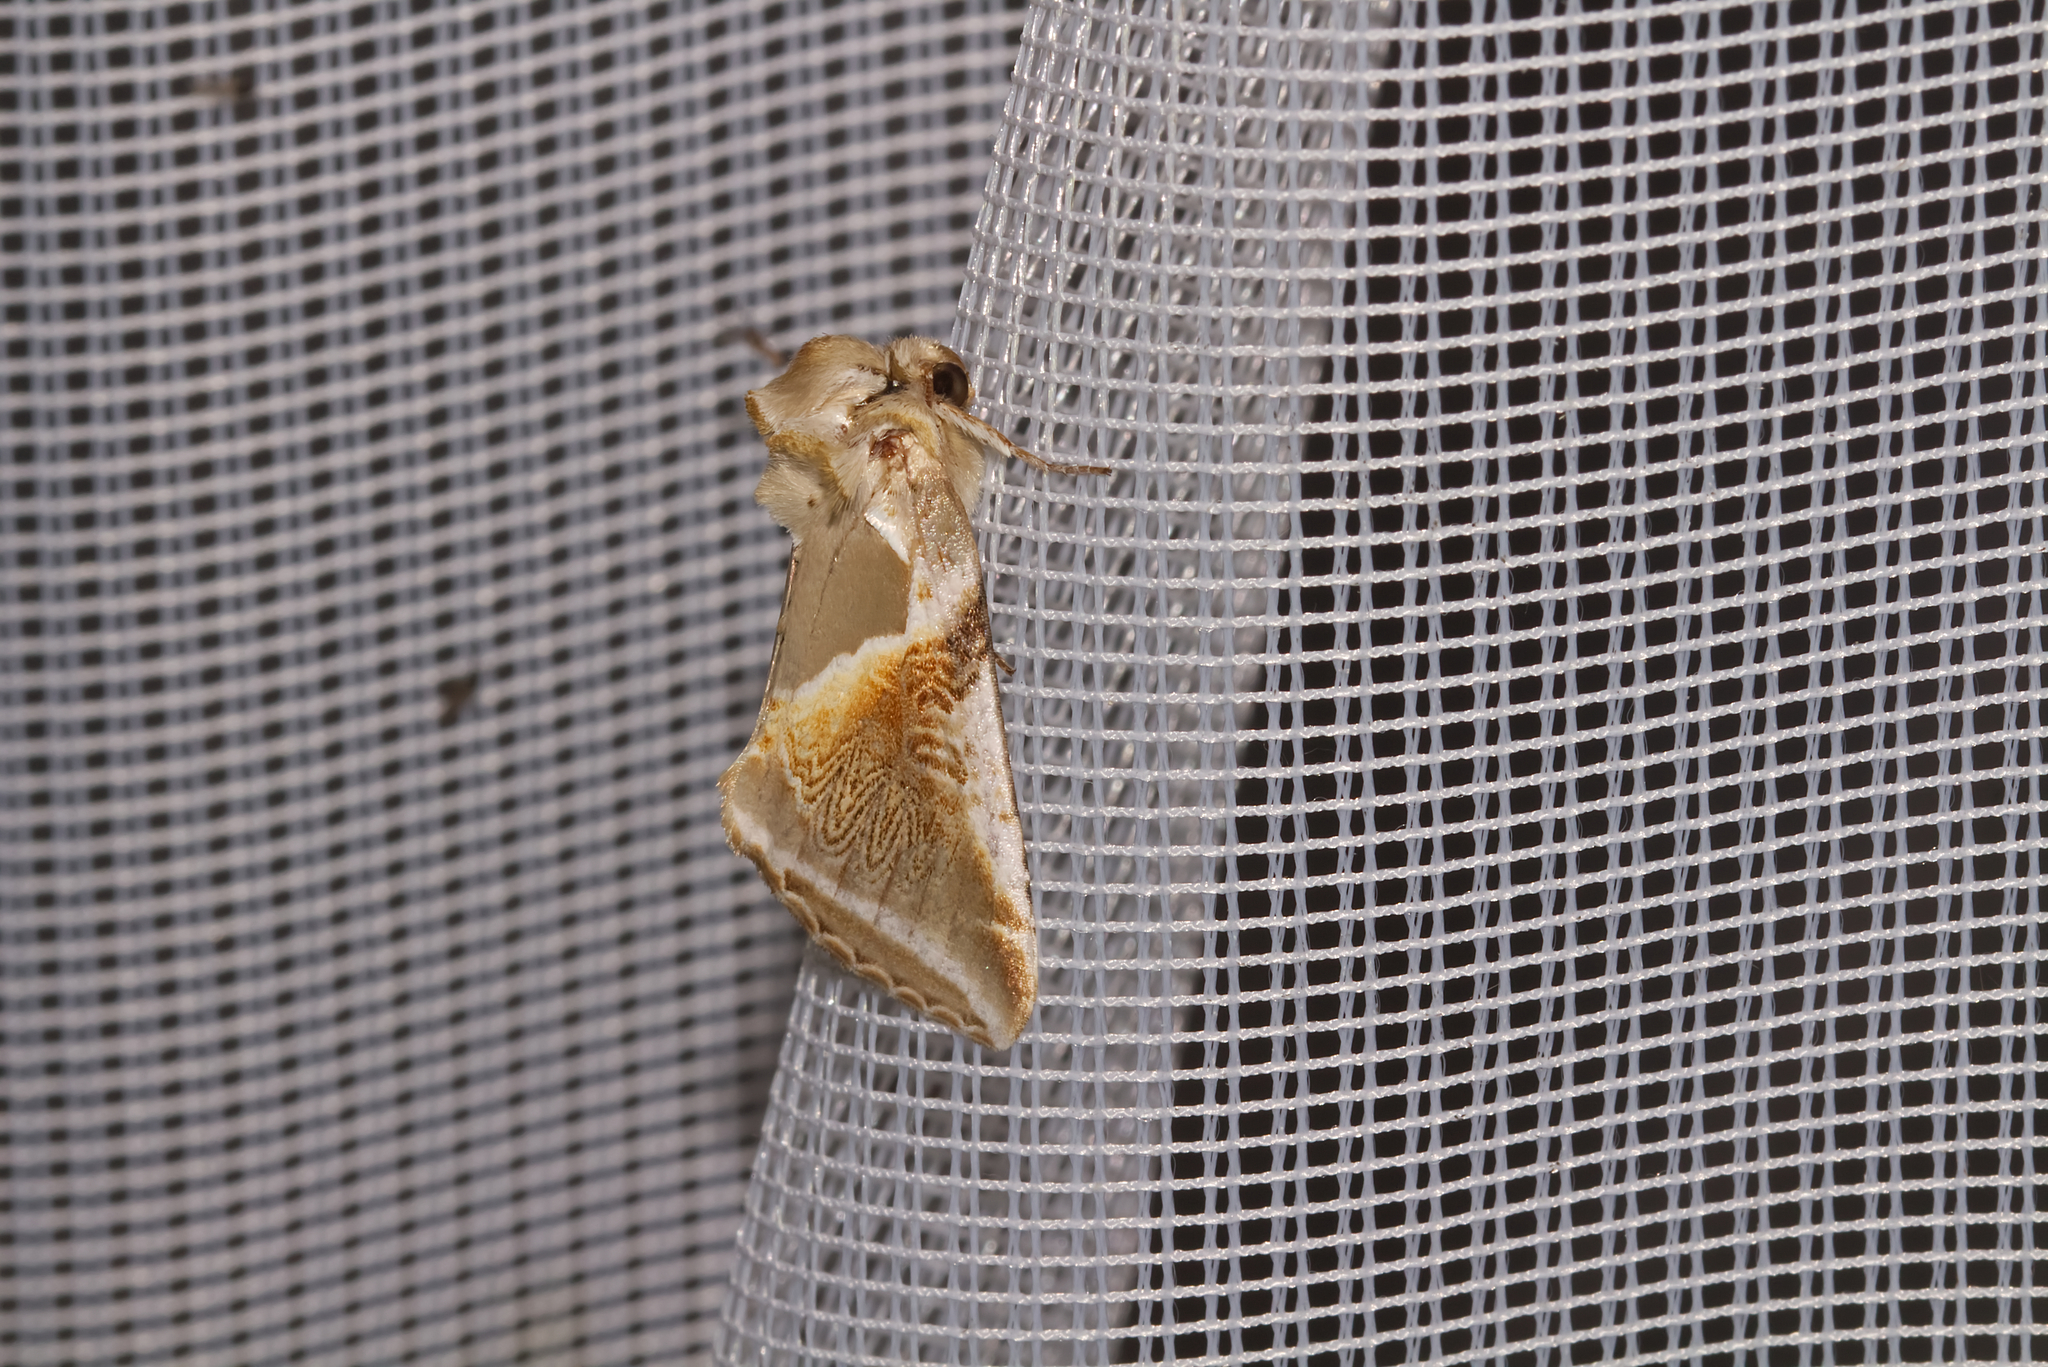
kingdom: Animalia
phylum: Arthropoda
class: Insecta
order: Lepidoptera
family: Drepanidae
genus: Habrosyne
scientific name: Habrosyne pyritoides
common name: Buff arches
